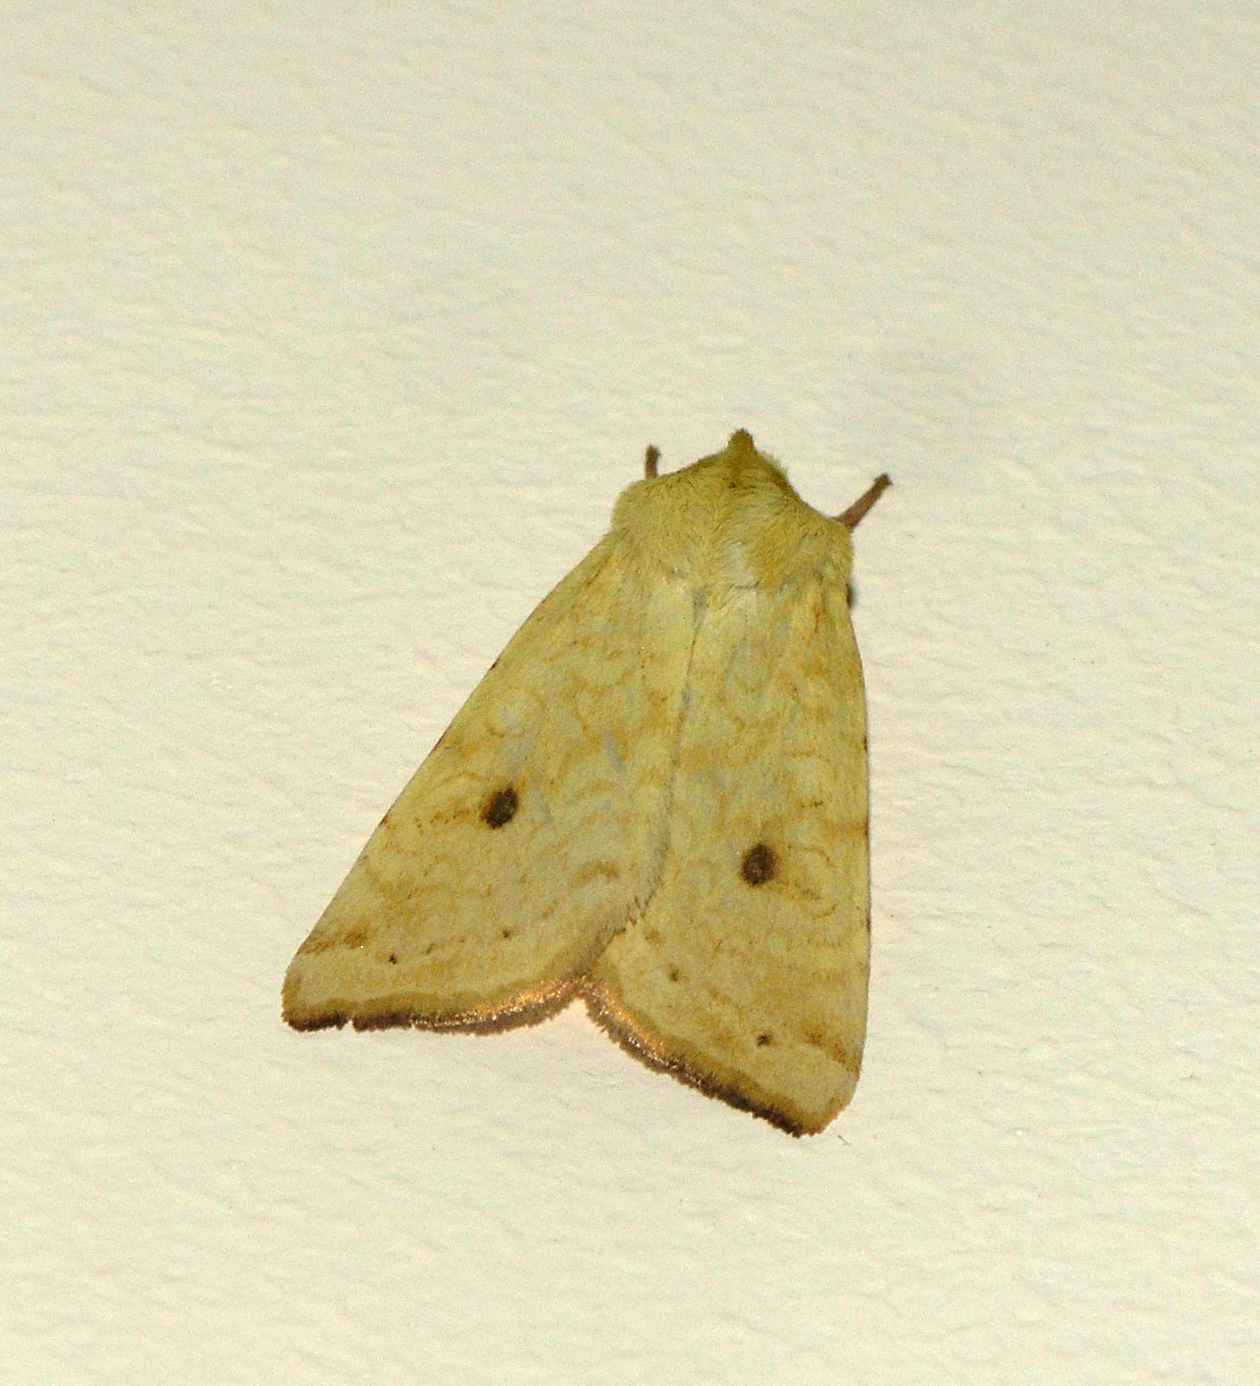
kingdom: Animalia
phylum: Arthropoda
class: Insecta
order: Lepidoptera
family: Noctuidae
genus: Xanthia
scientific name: Xanthia icteritia
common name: The sallow
